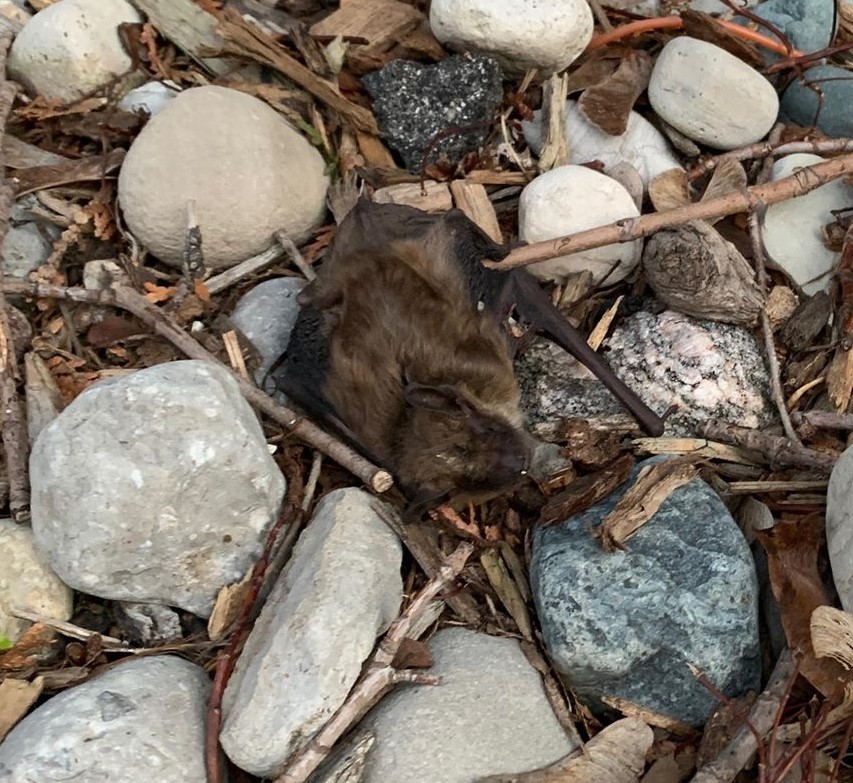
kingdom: Animalia
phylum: Chordata
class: Mammalia
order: Chiroptera
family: Vespertilionidae
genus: Eptesicus
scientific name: Eptesicus fuscus
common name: Big brown bat
